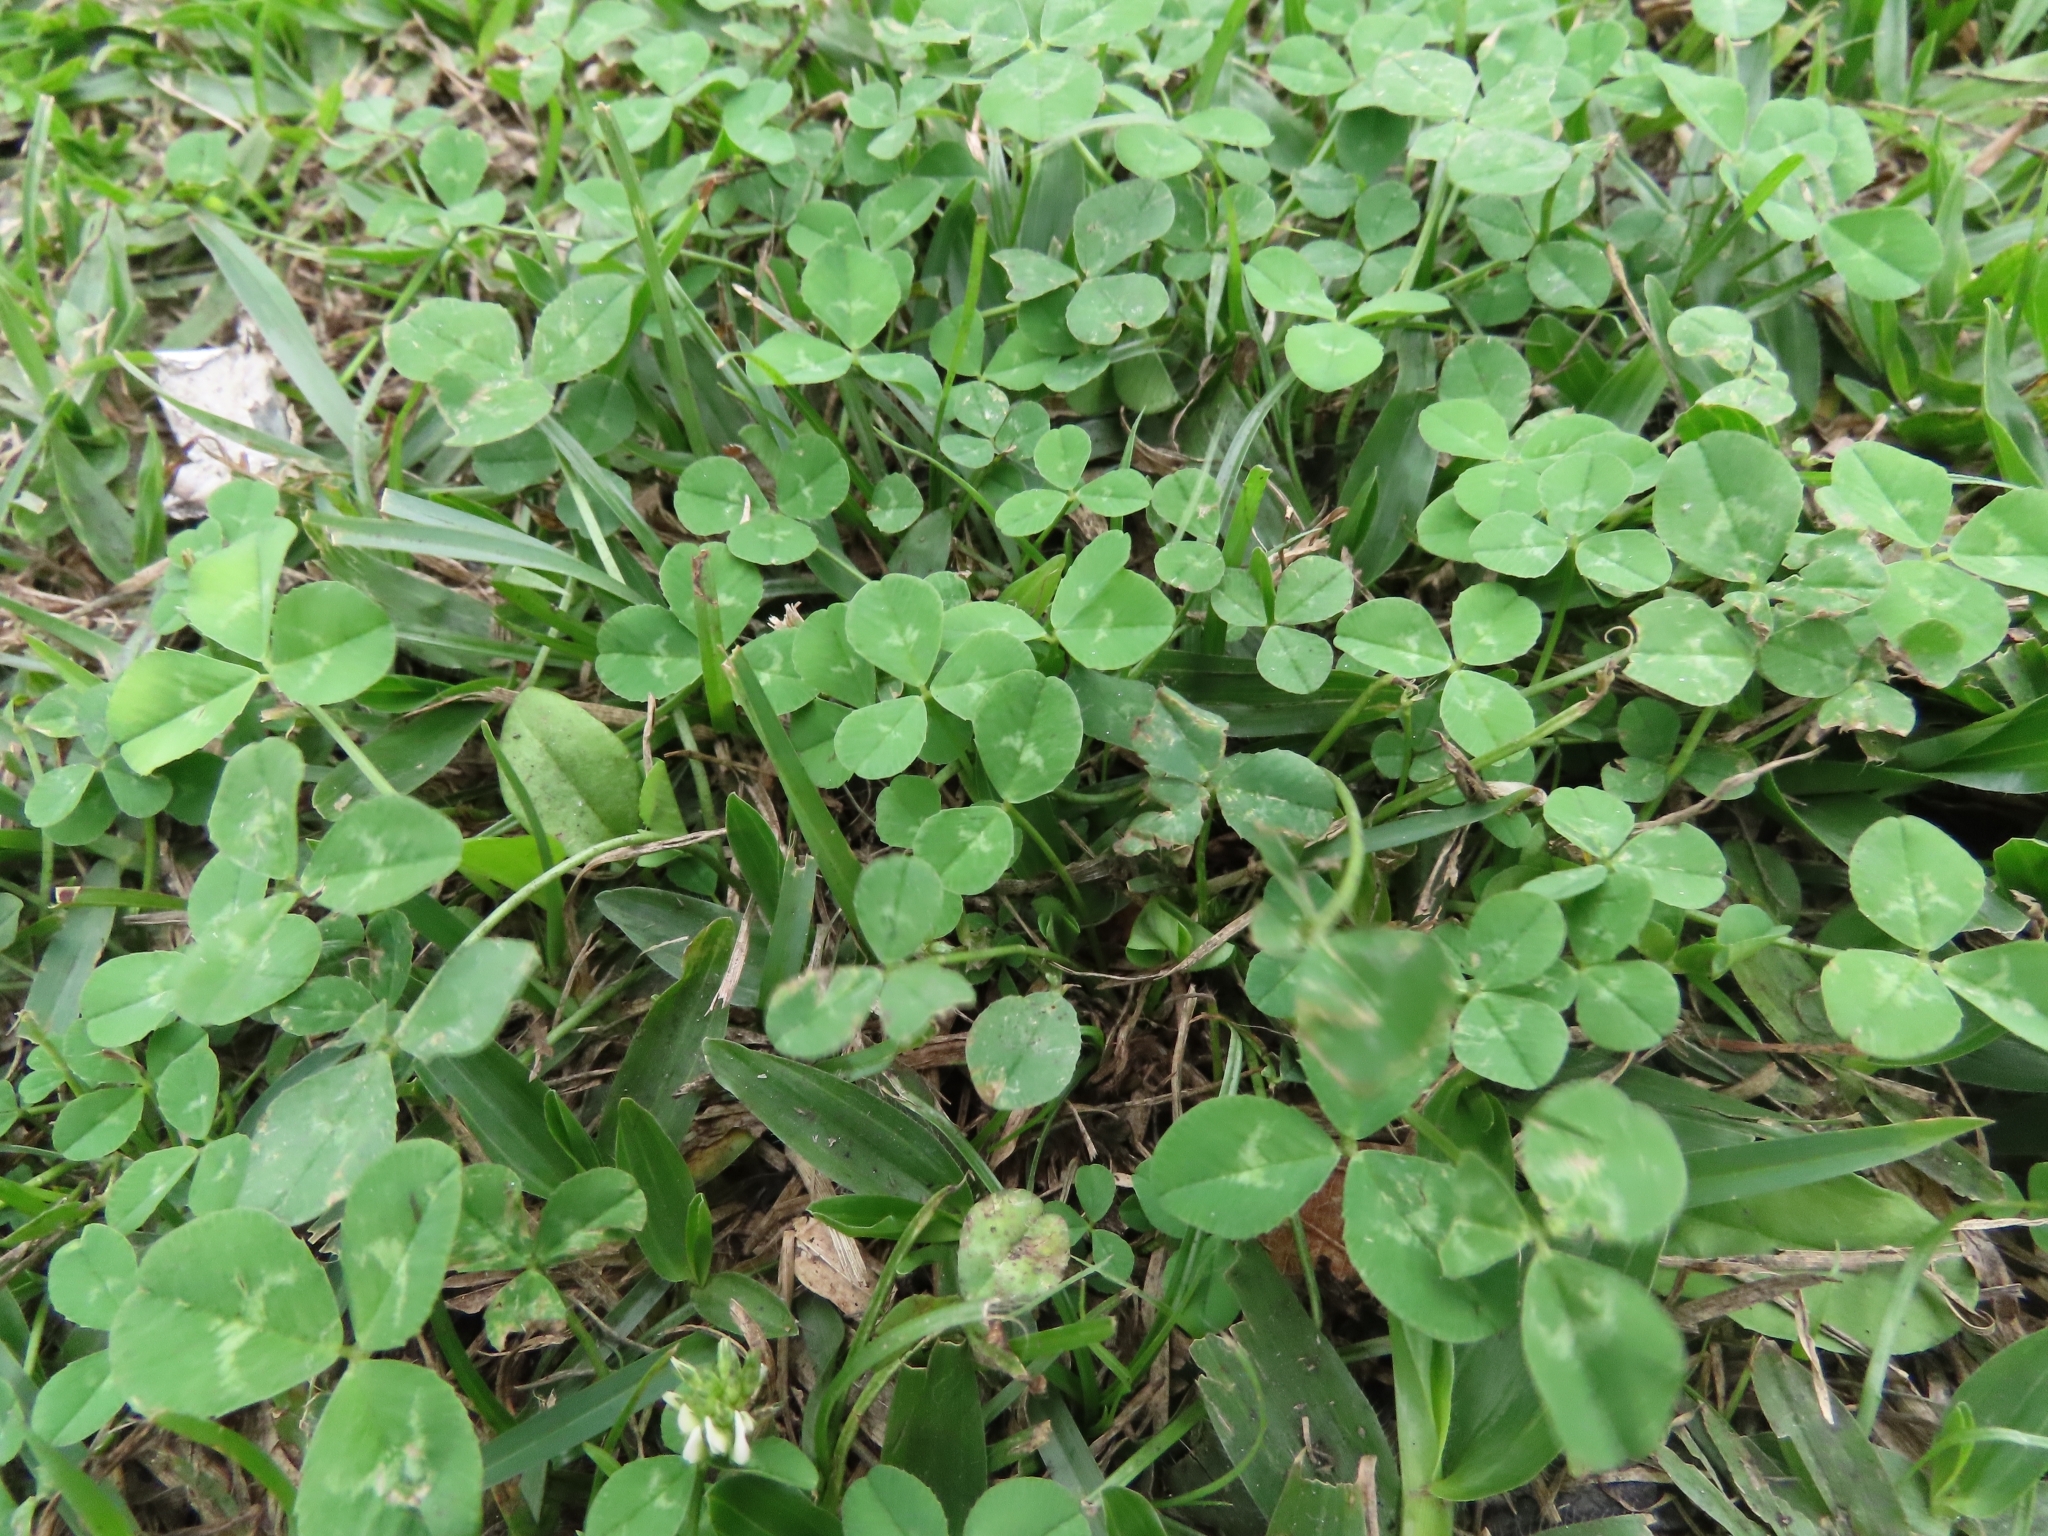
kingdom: Plantae
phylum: Tracheophyta
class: Magnoliopsida
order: Fabales
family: Fabaceae
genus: Trifolium
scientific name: Trifolium repens
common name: White clover
